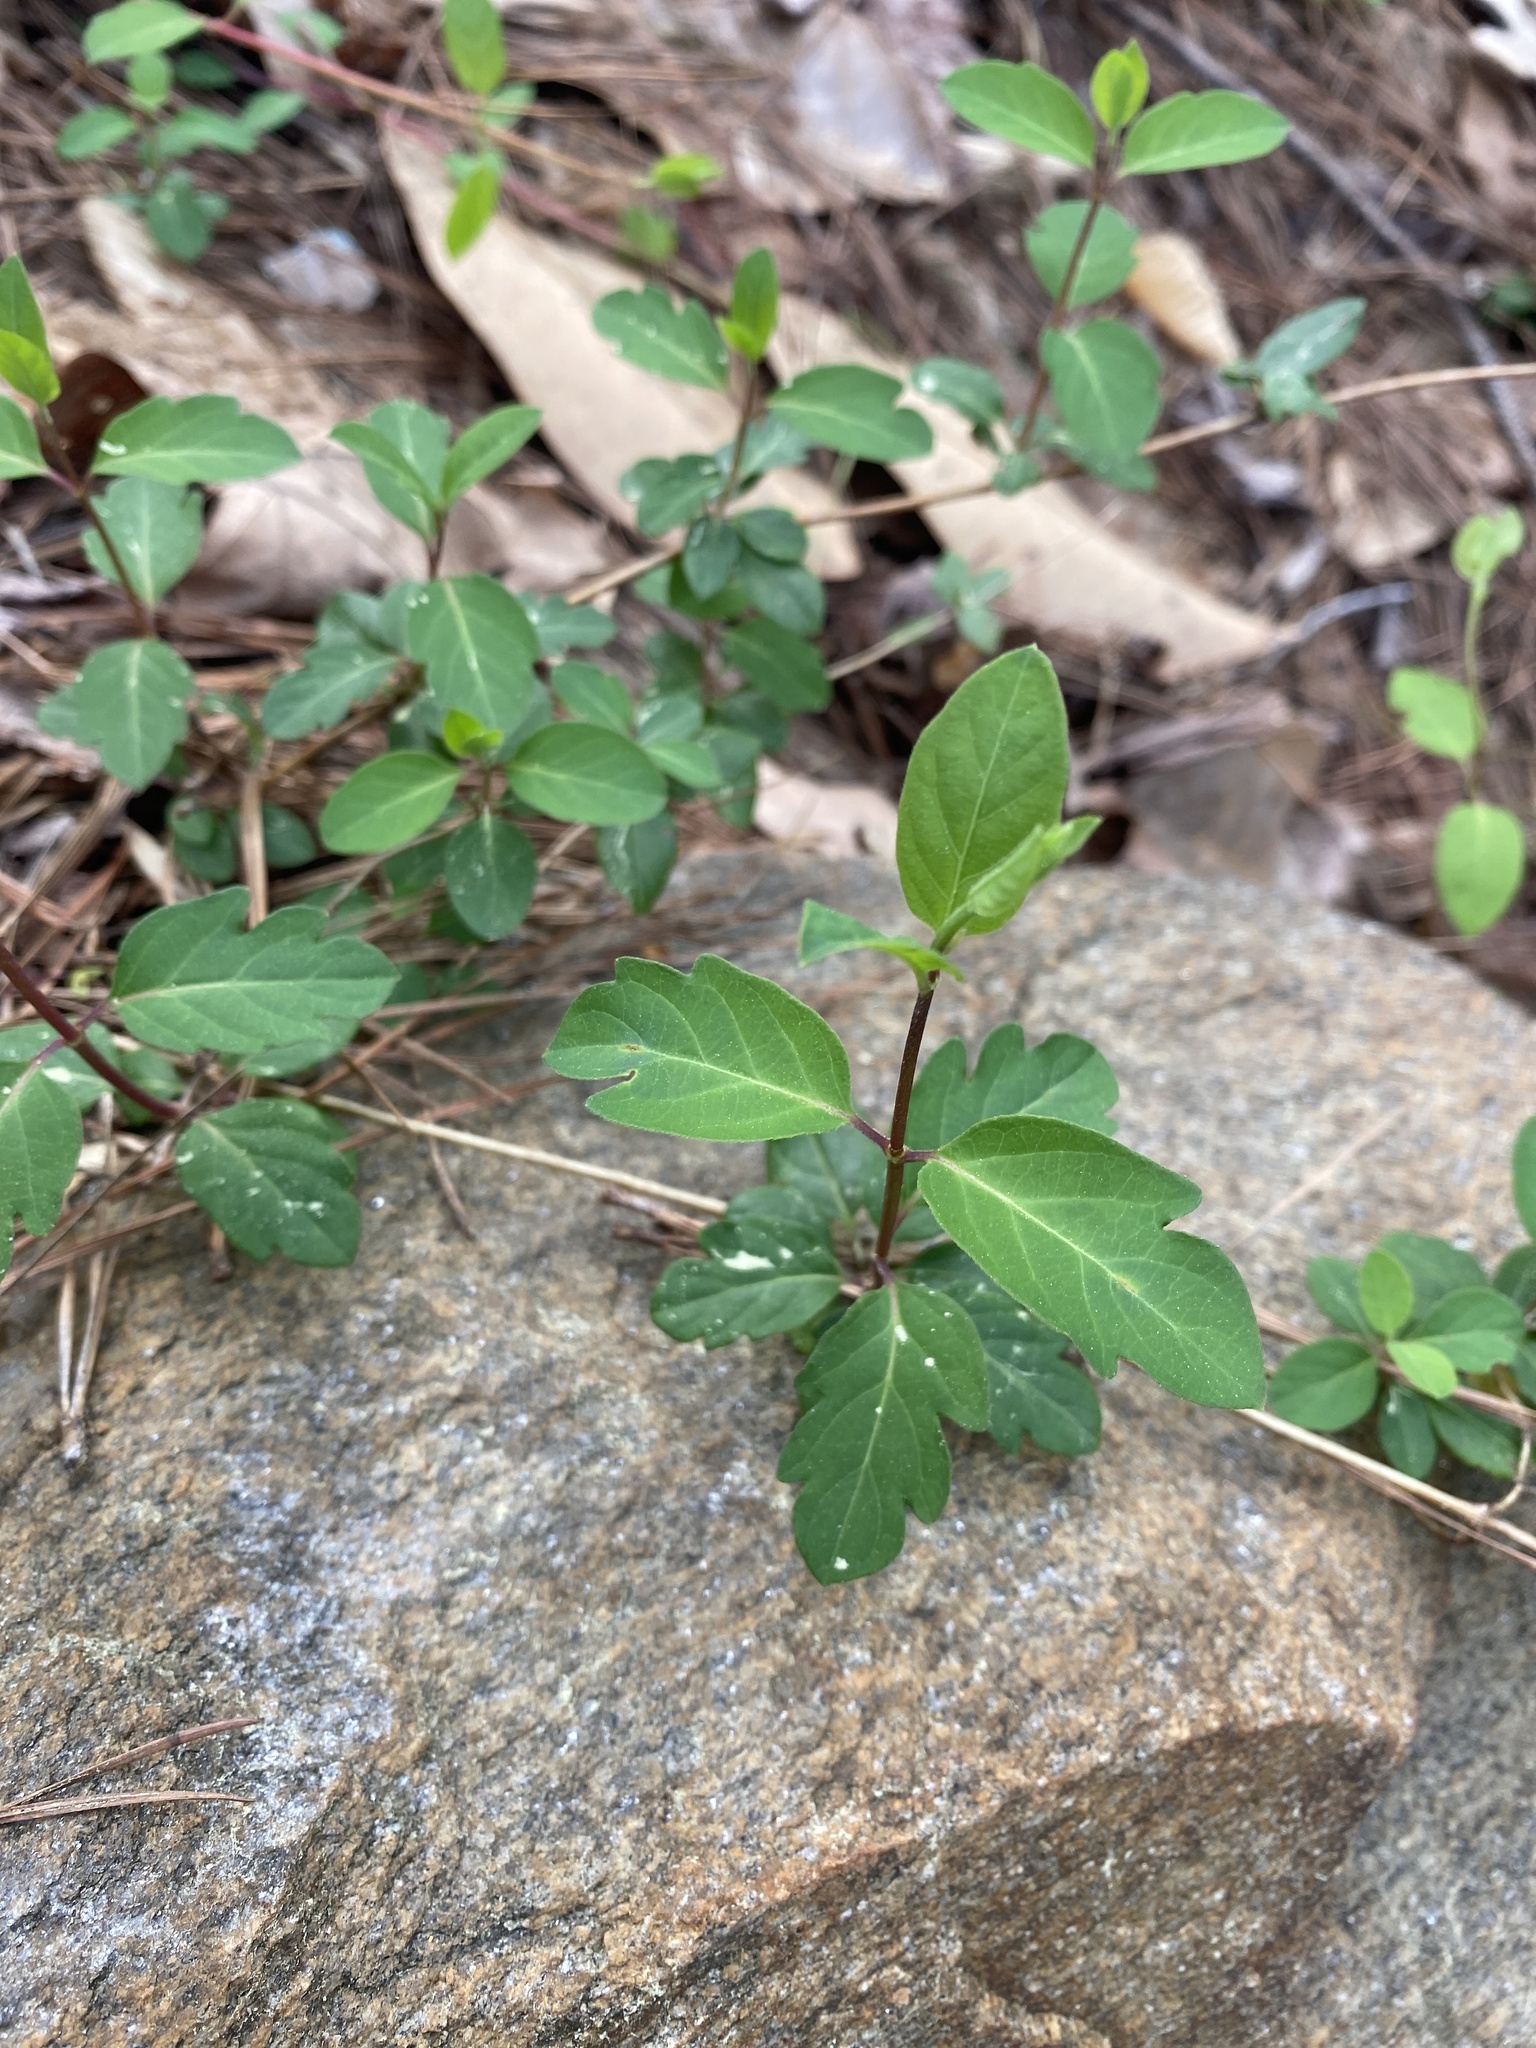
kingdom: Plantae
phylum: Tracheophyta
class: Magnoliopsida
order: Dipsacales
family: Caprifoliaceae
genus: Lonicera
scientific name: Lonicera japonica
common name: Japanese honeysuckle
